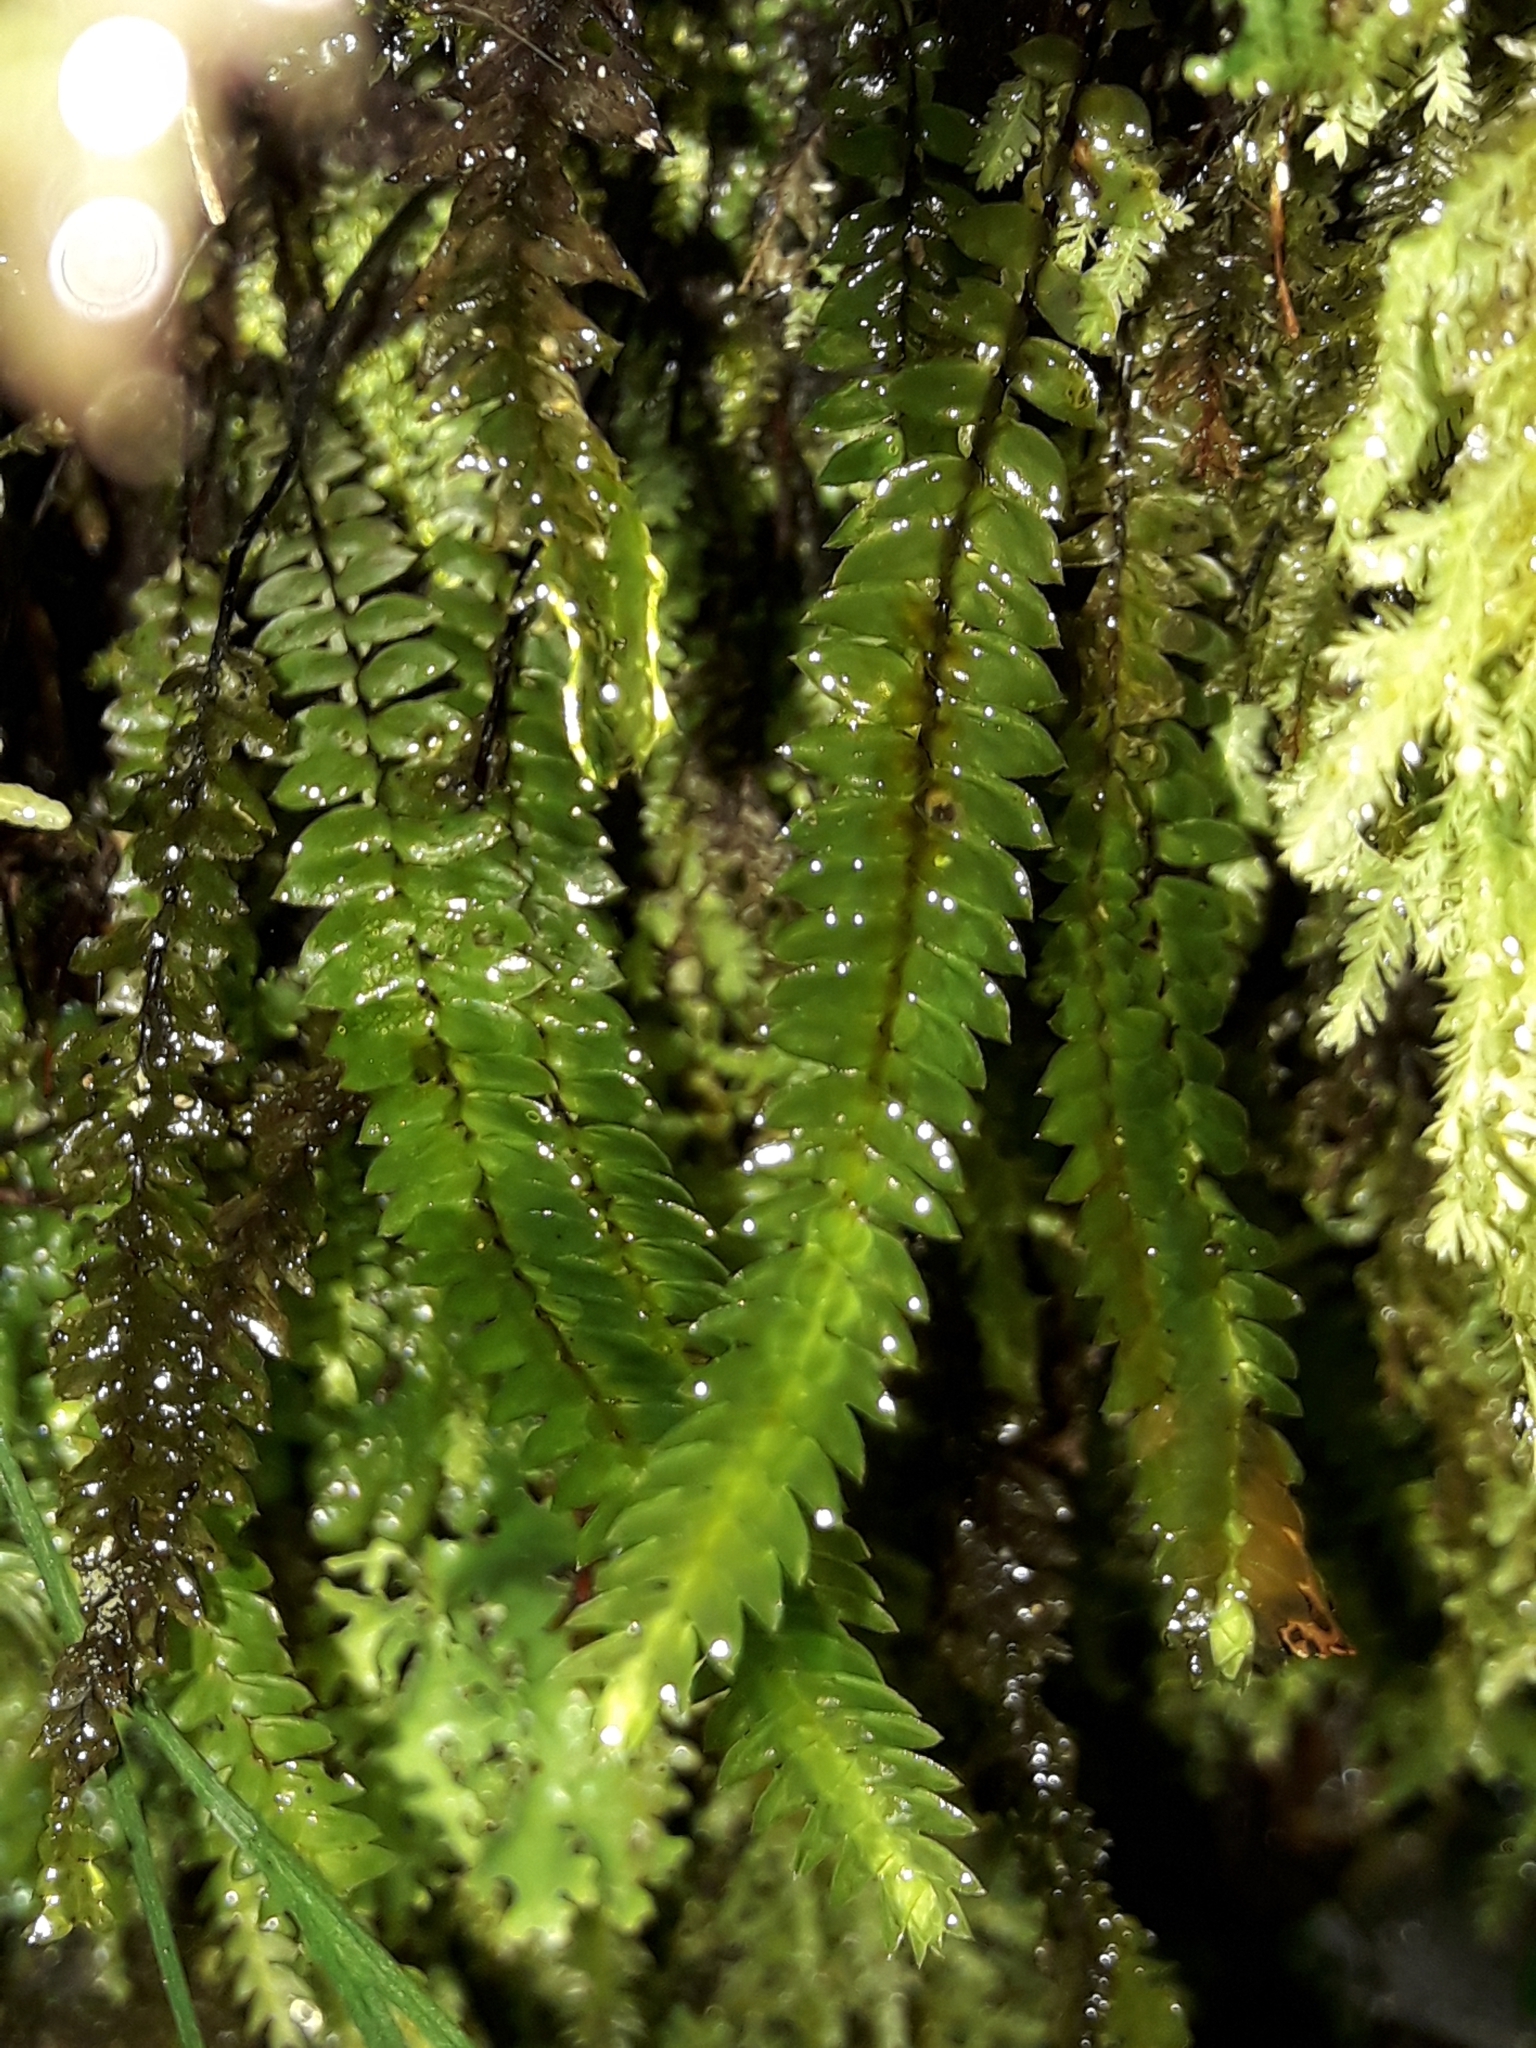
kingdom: Plantae
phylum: Bryophyta
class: Bryopsida
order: Hypopterygiales
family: Hypopterygiaceae
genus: Cyathophorum
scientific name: Cyathophorum bulbosum
